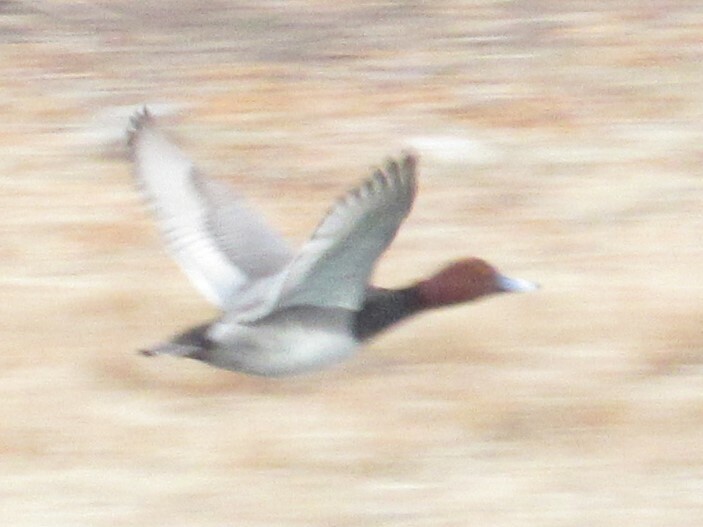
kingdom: Animalia
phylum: Chordata
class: Aves
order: Anseriformes
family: Anatidae
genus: Aythya
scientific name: Aythya americana
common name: Redhead
